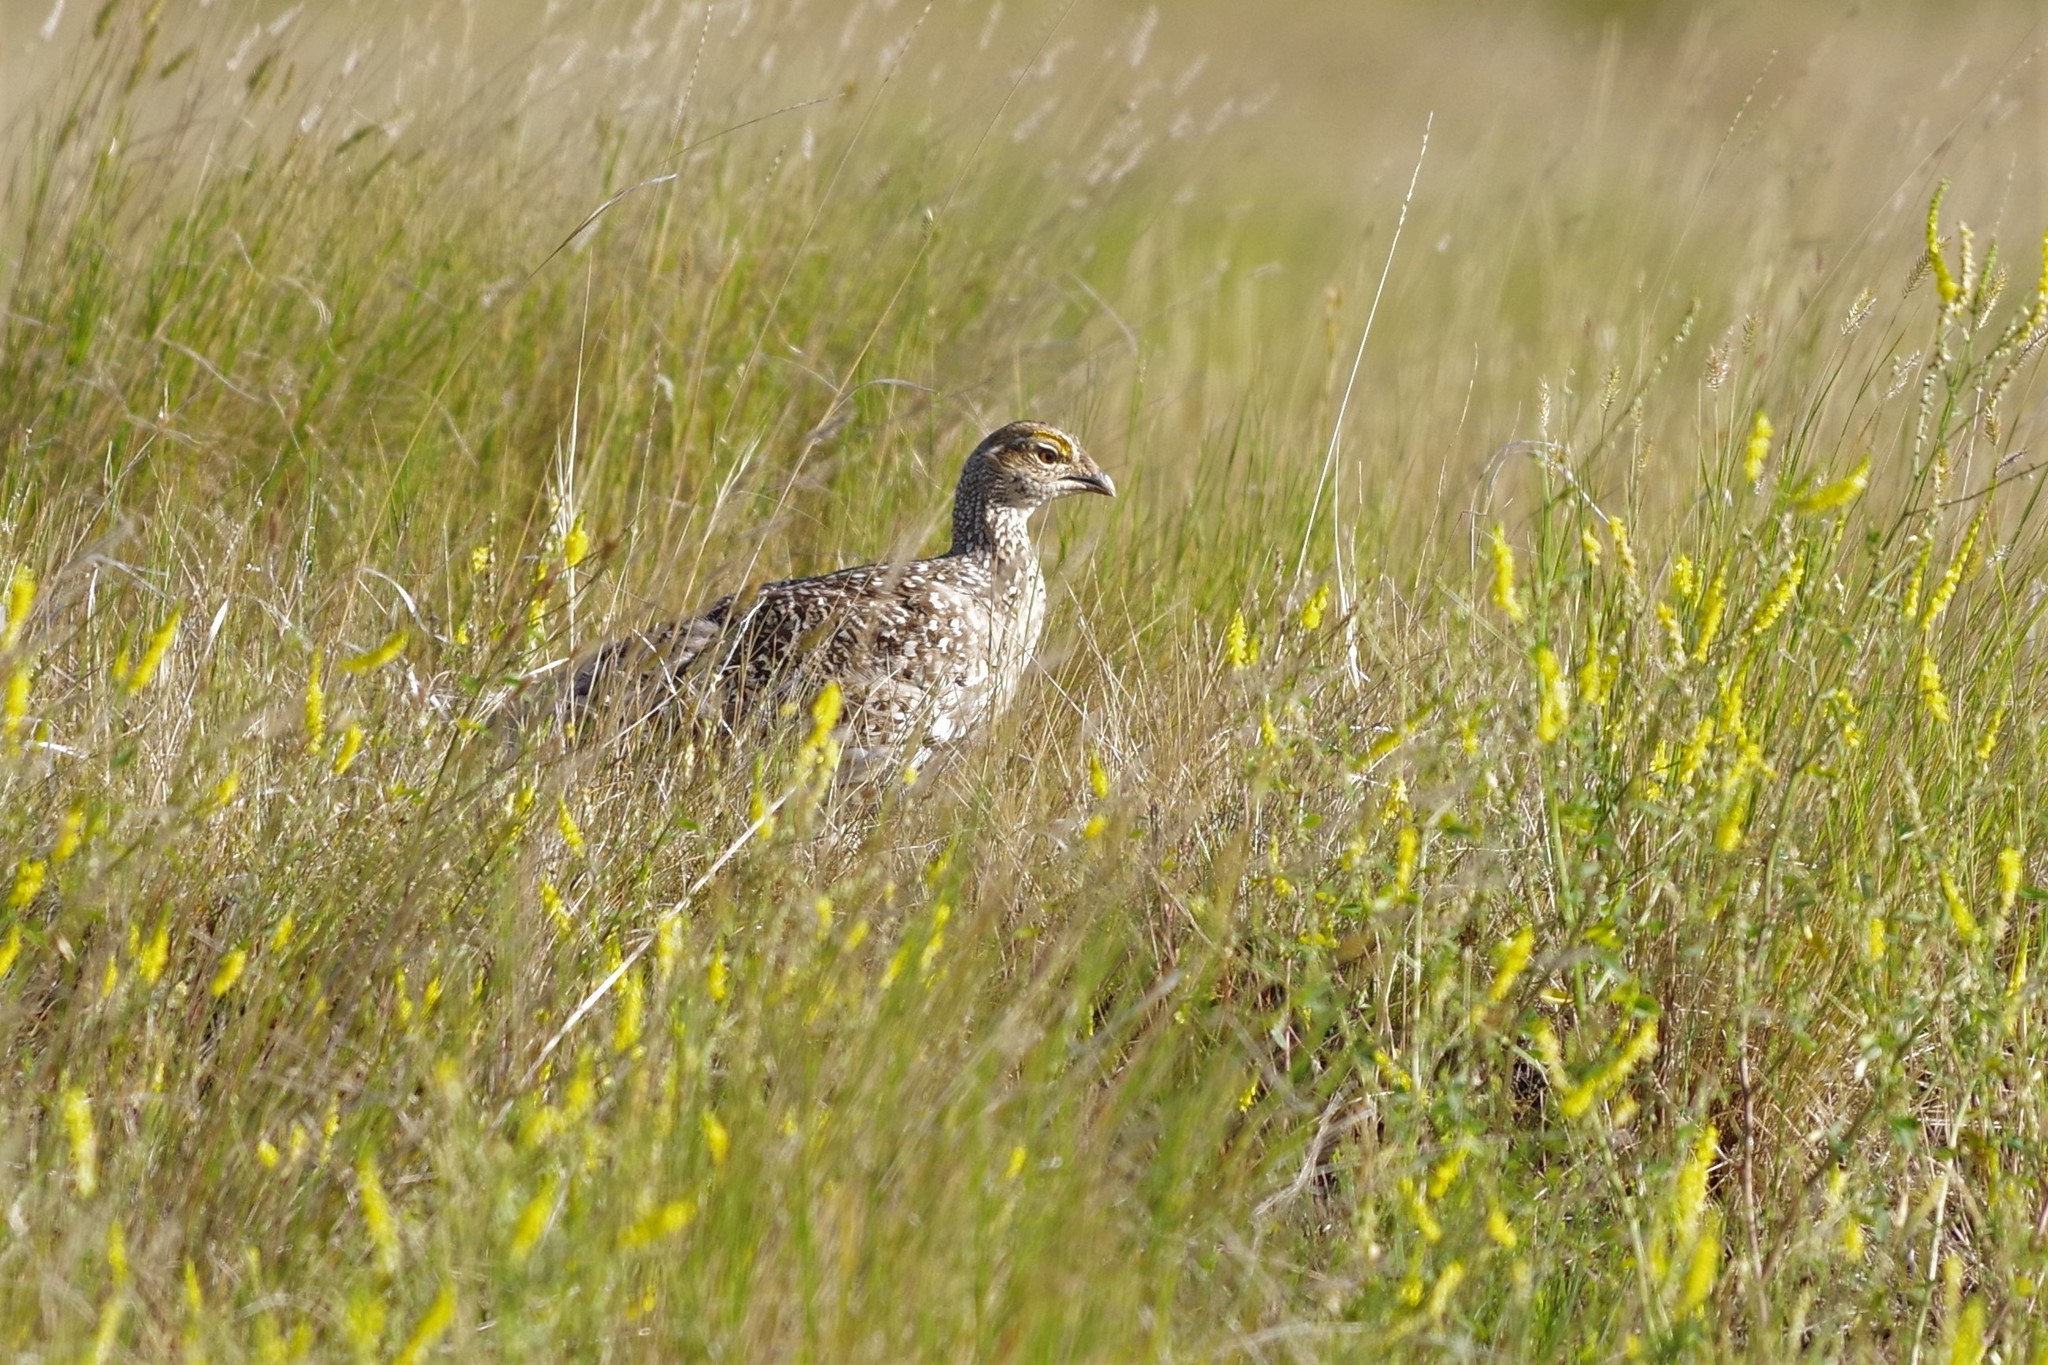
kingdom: Animalia
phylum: Chordata
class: Aves
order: Galliformes
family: Phasianidae
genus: Tympanuchus
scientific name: Tympanuchus phasianellus
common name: Sharp-tailed grouse
